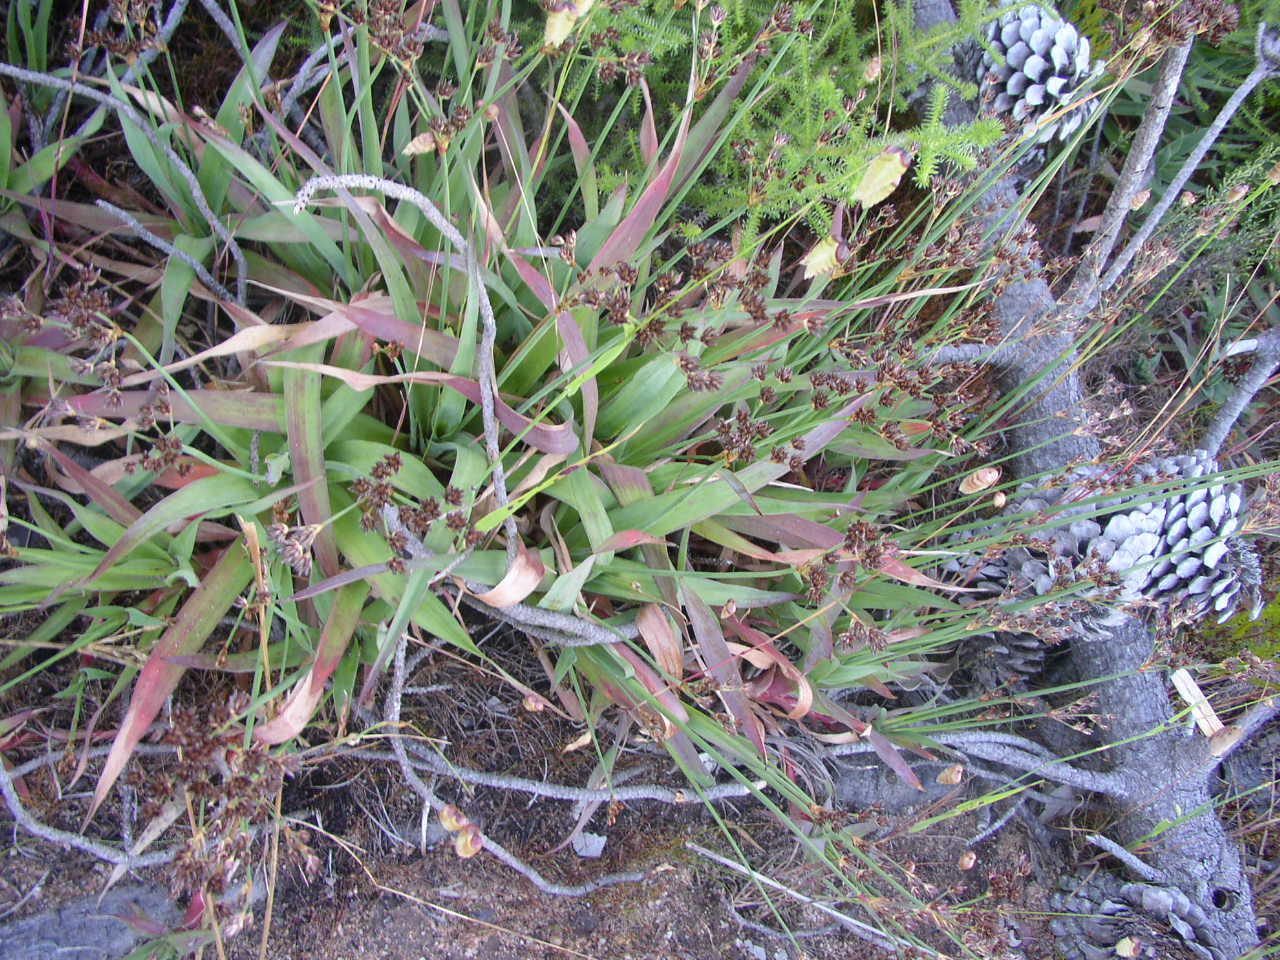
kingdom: Plantae
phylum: Tracheophyta
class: Liliopsida
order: Poales
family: Juncaceae
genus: Juncus
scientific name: Juncus lomatophyllus
